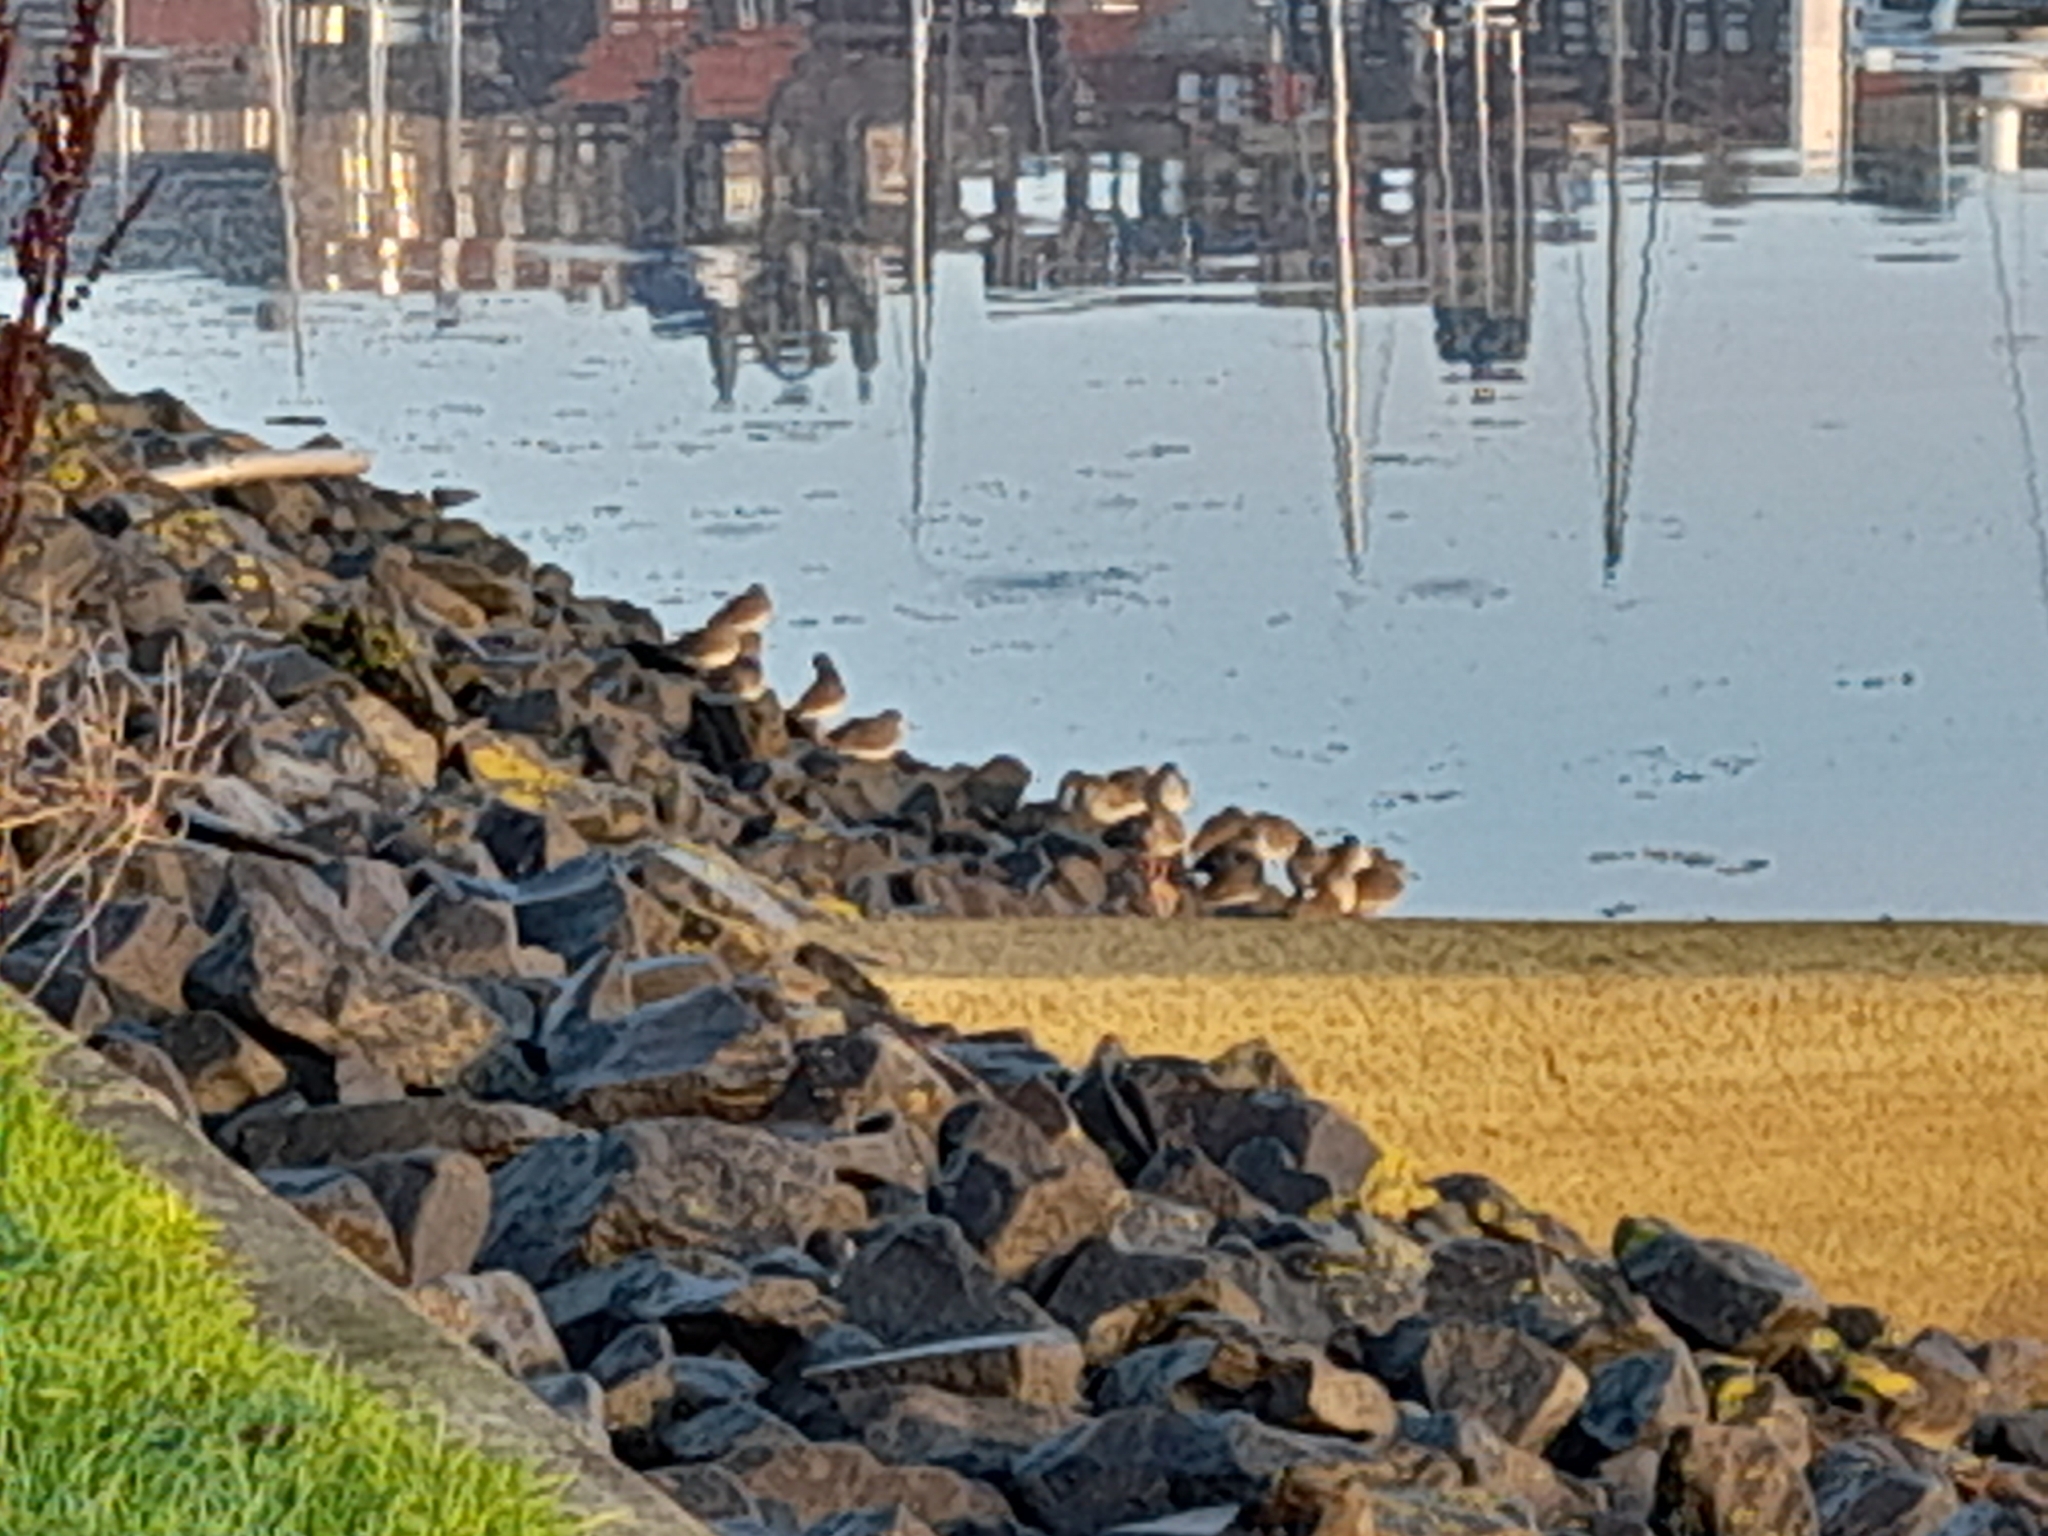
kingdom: Animalia
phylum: Chordata
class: Aves
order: Charadriiformes
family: Scolopacidae
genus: Tringa
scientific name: Tringa totanus
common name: Common redshank
